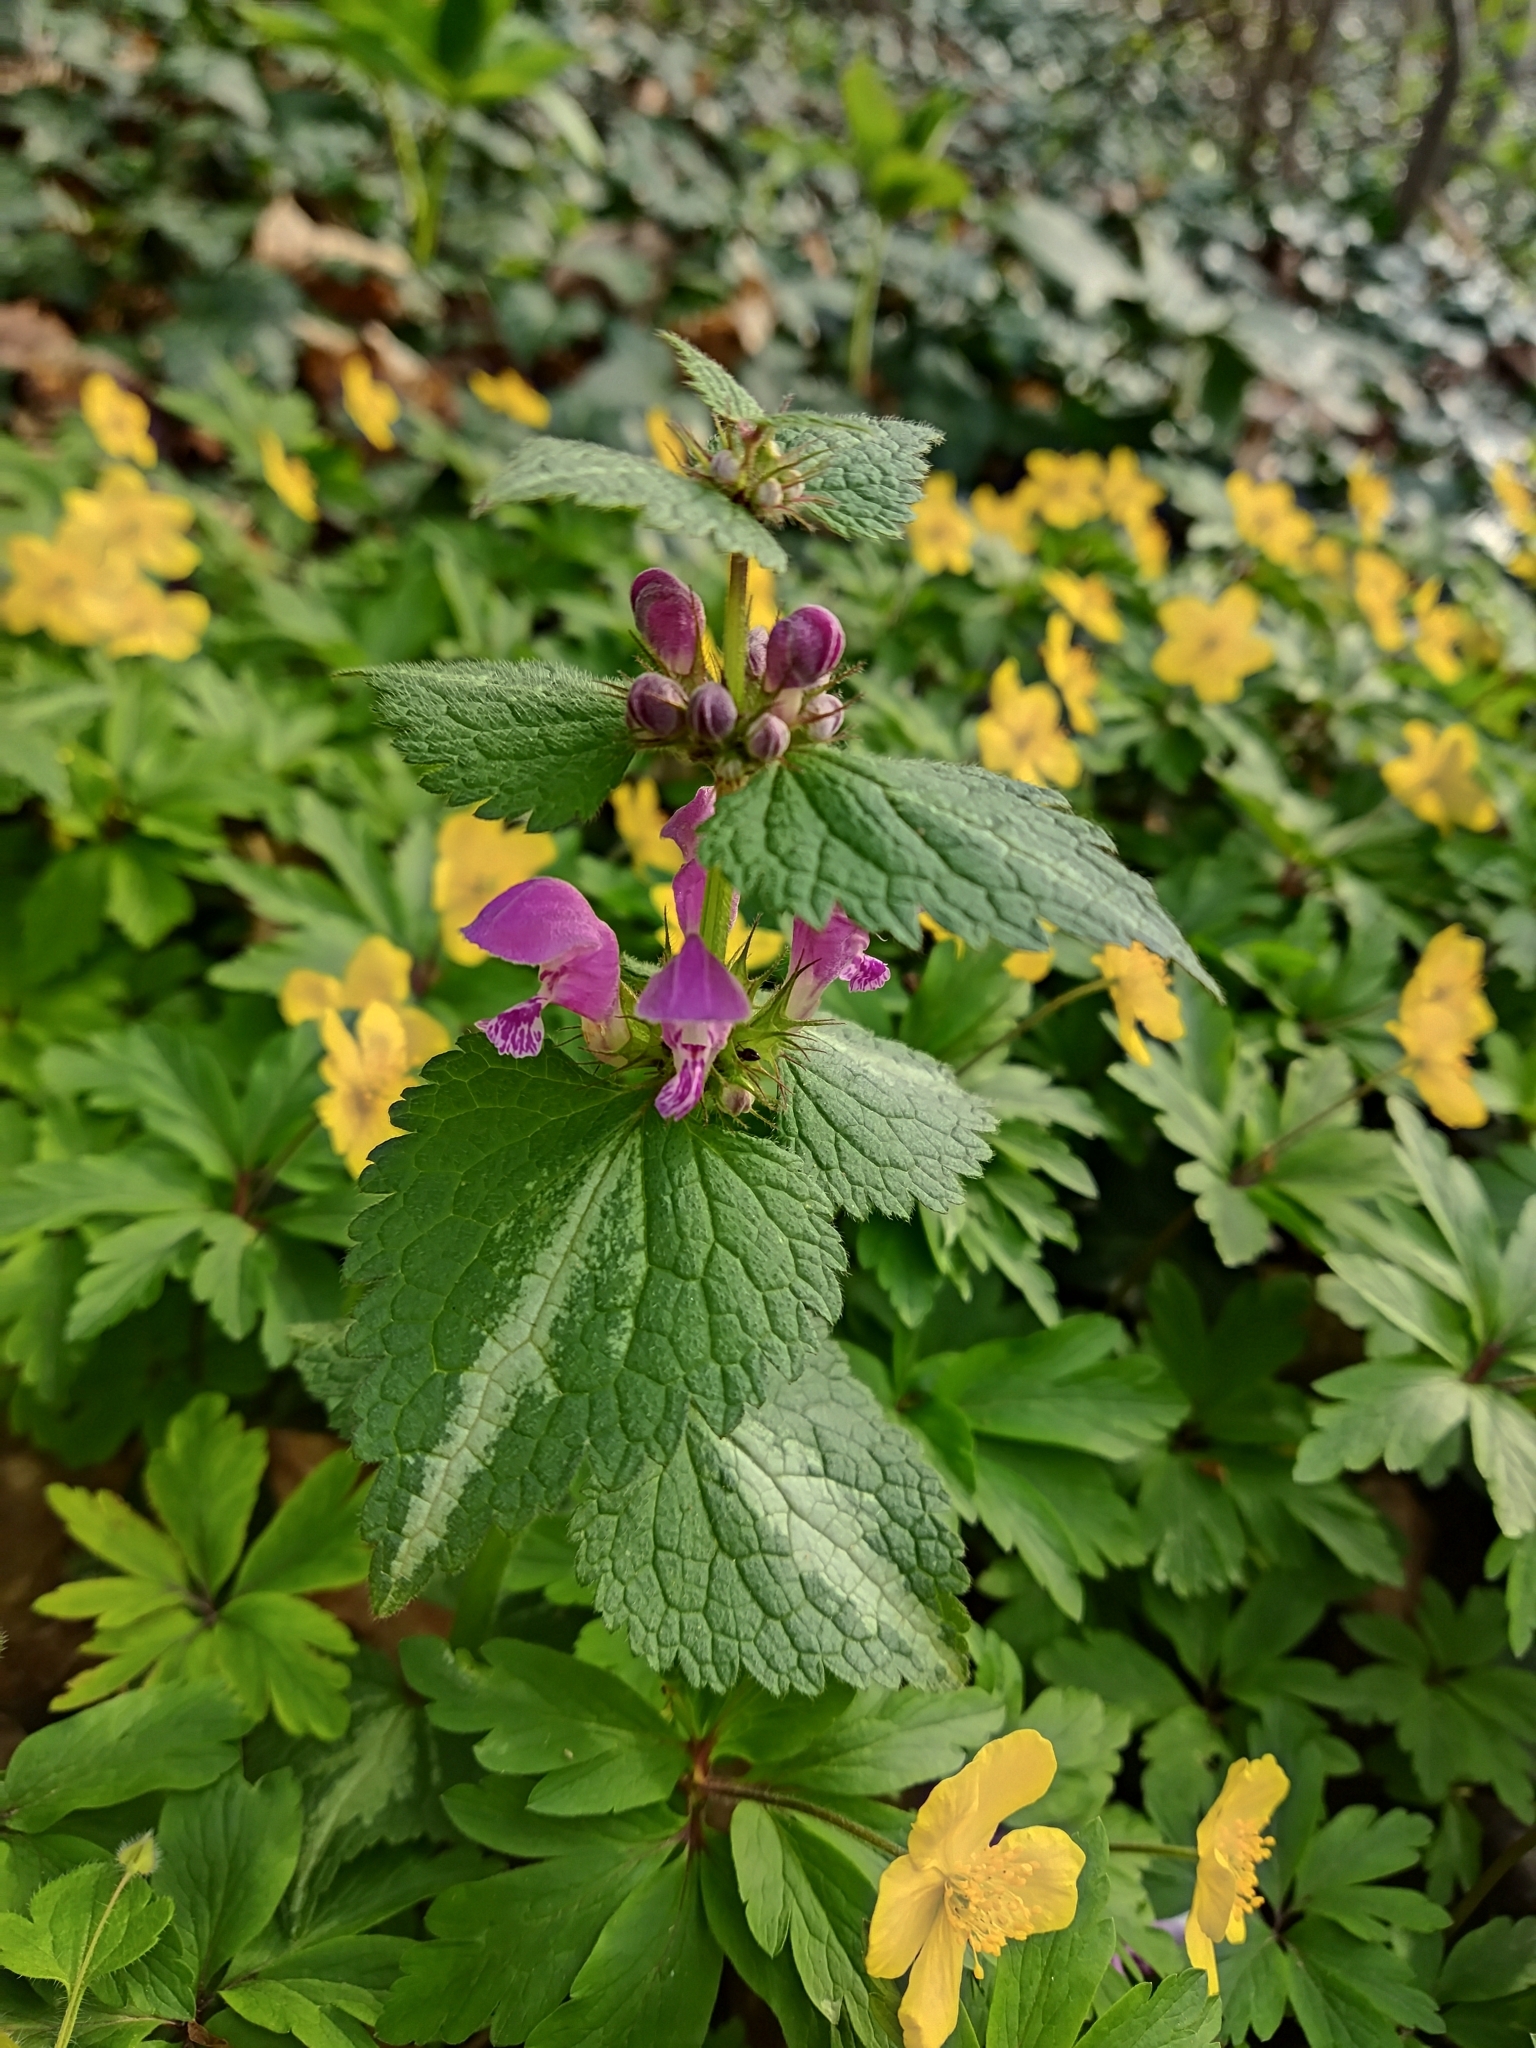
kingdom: Plantae
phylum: Tracheophyta
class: Magnoliopsida
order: Lamiales
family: Lamiaceae
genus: Lamium
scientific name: Lamium maculatum
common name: Spotted dead-nettle
